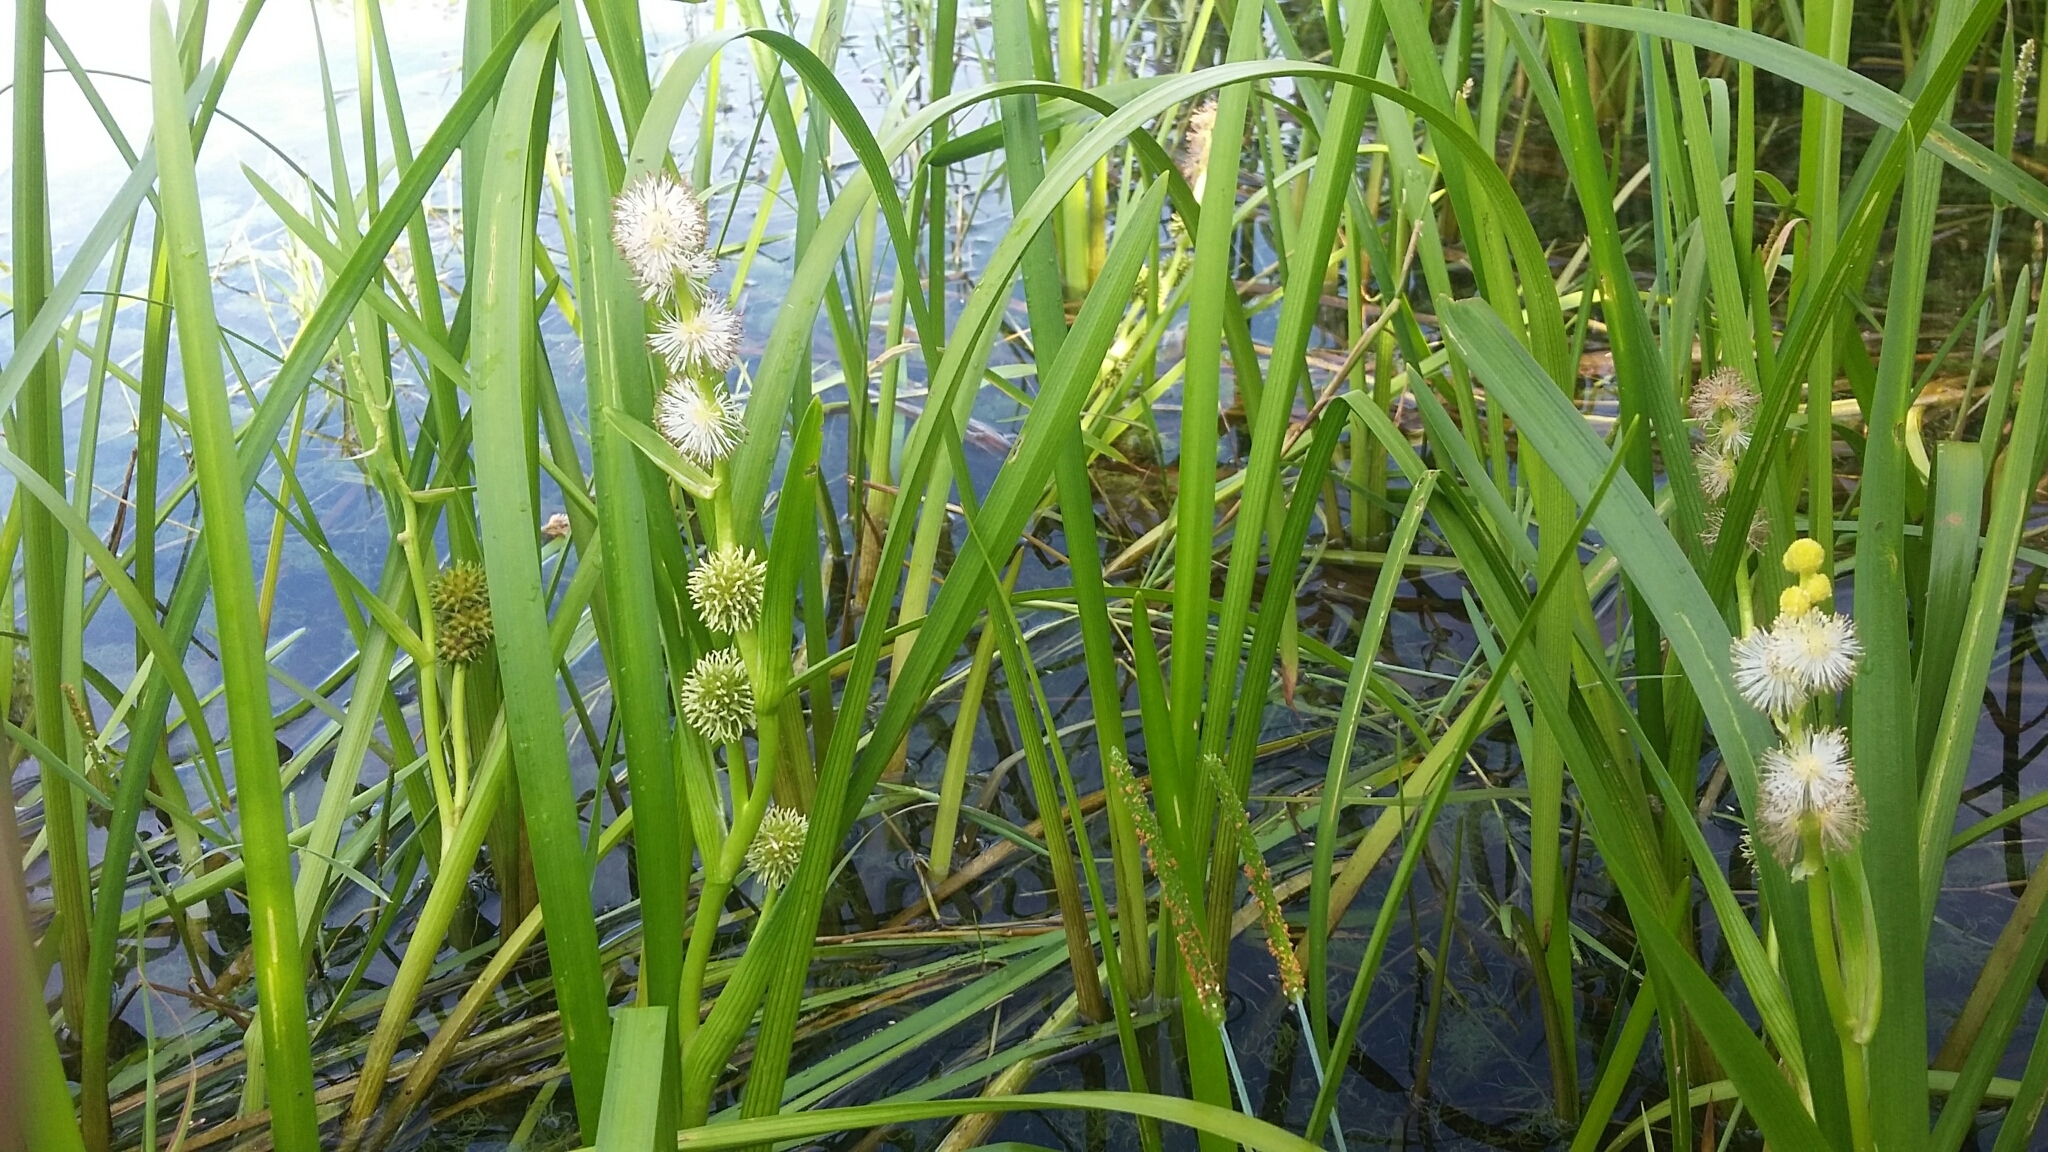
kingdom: Plantae
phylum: Tracheophyta
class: Liliopsida
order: Poales
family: Typhaceae
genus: Sparganium
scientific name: Sparganium eurycarpum
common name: Broad-fruited burreed
